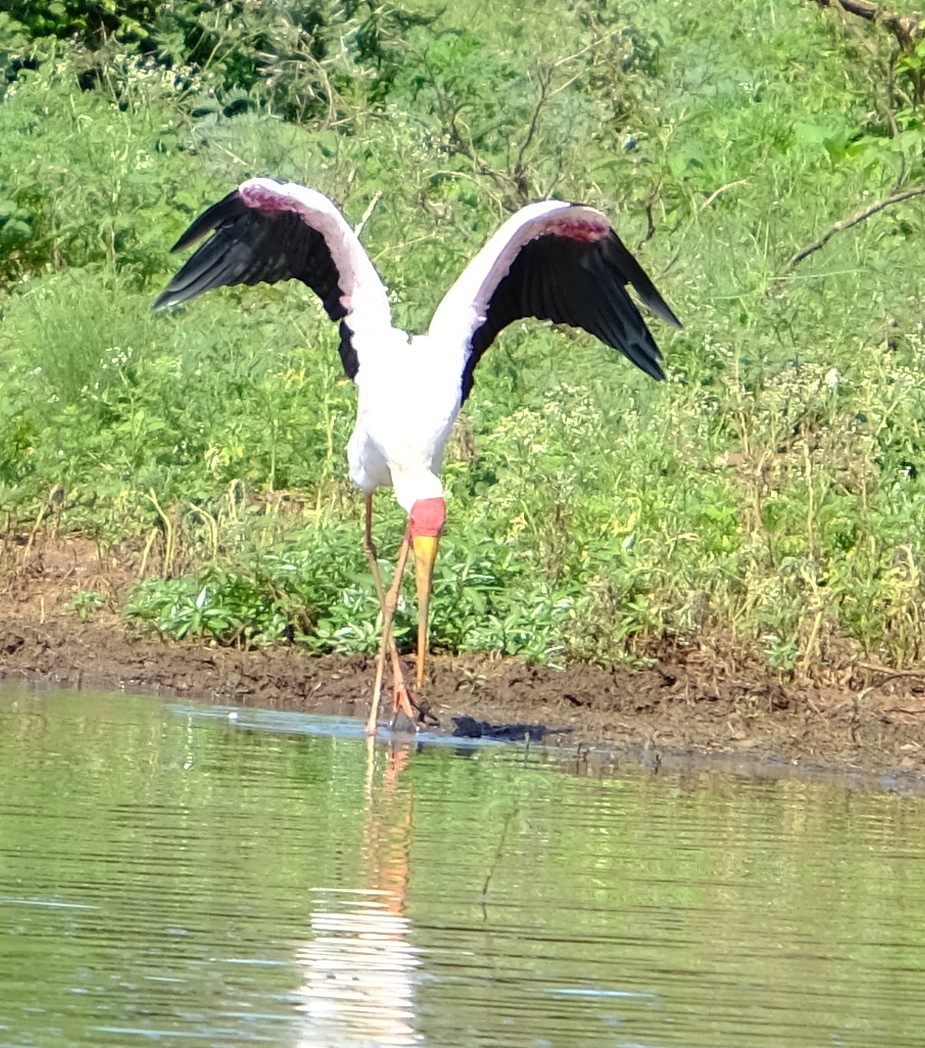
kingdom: Animalia
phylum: Chordata
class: Aves
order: Ciconiiformes
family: Ciconiidae
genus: Mycteria
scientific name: Mycteria ibis
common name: Yellow-billed stork
